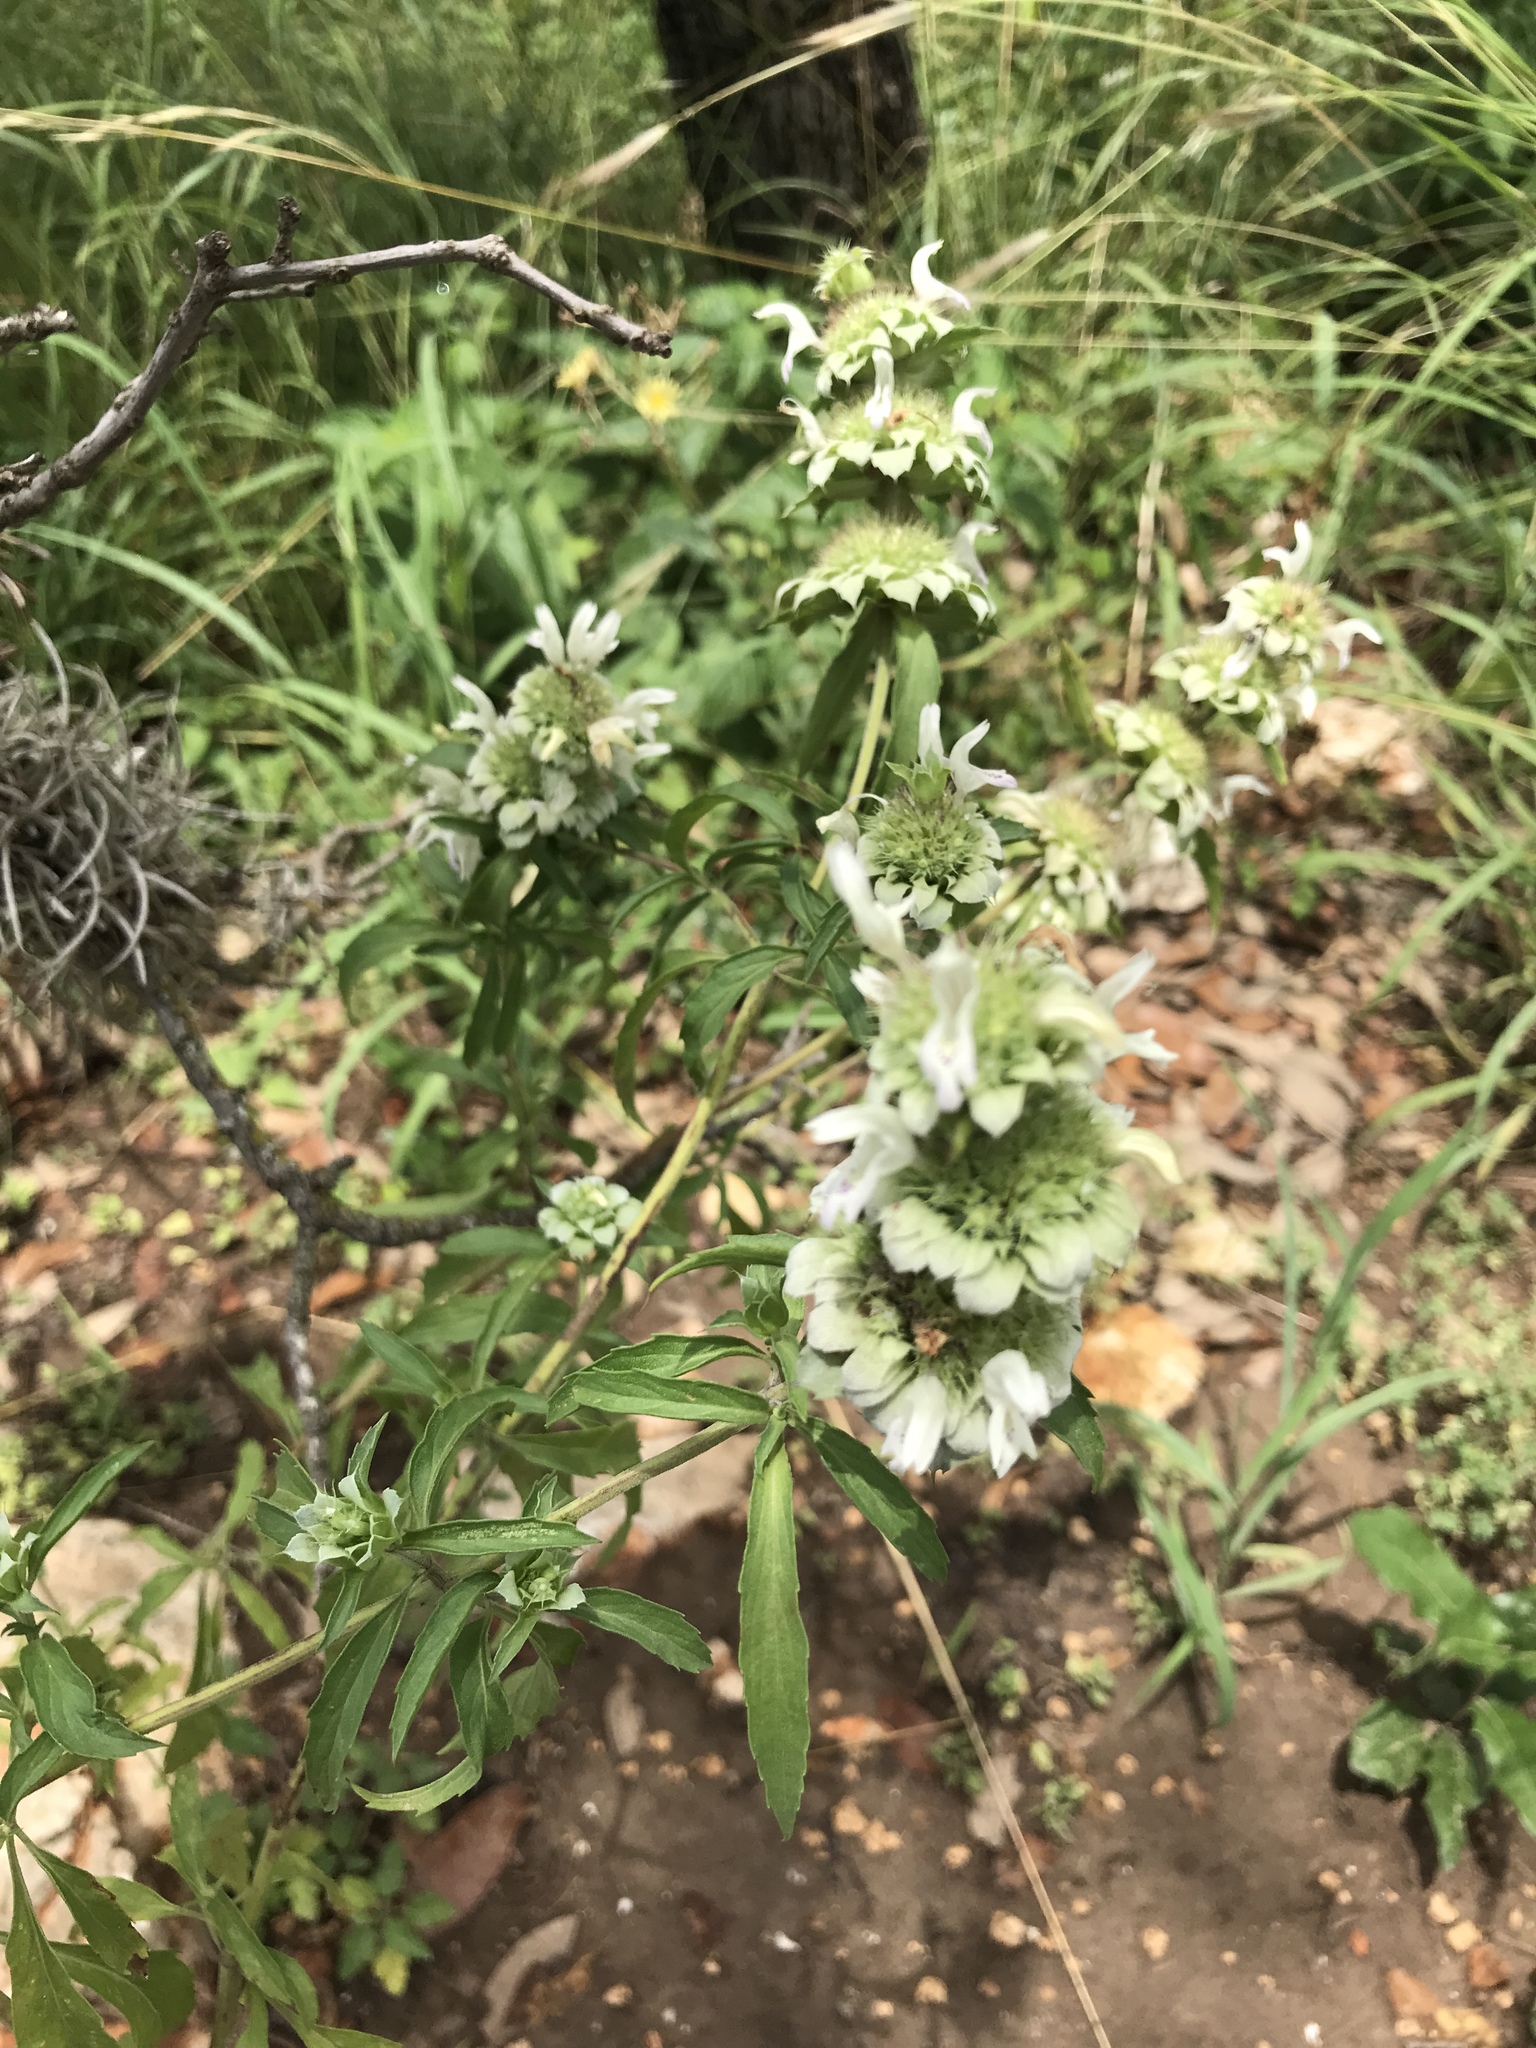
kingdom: Plantae
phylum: Tracheophyta
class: Magnoliopsida
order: Lamiales
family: Lamiaceae
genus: Monarda
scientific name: Monarda citriodora
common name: Lemon beebalm
